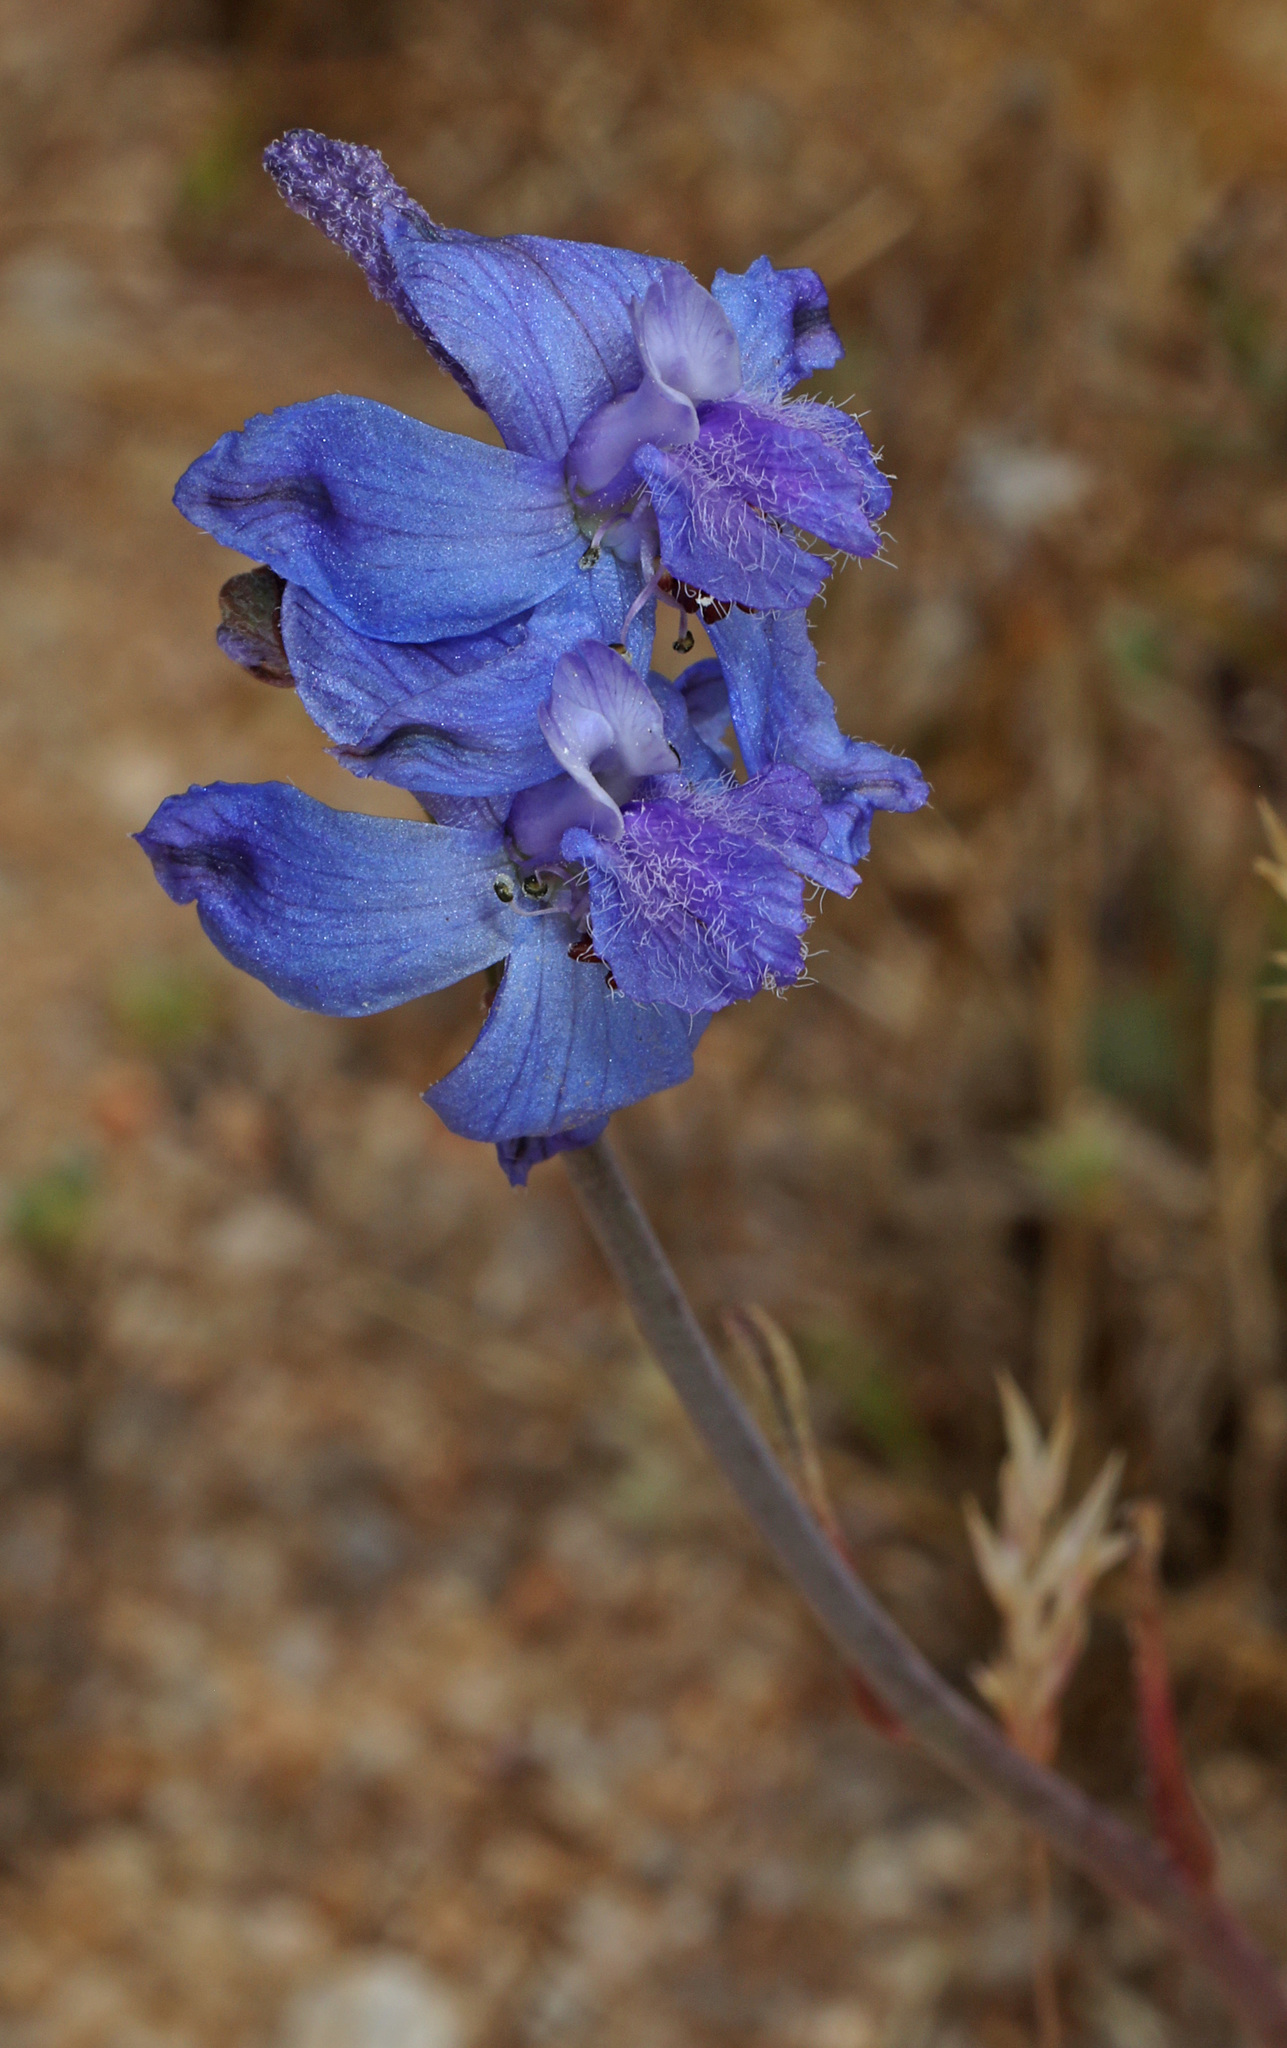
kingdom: Plantae
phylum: Tracheophyta
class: Magnoliopsida
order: Ranunculales
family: Ranunculaceae
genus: Delphinium
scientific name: Delphinium parishii
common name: Apache larkspur
